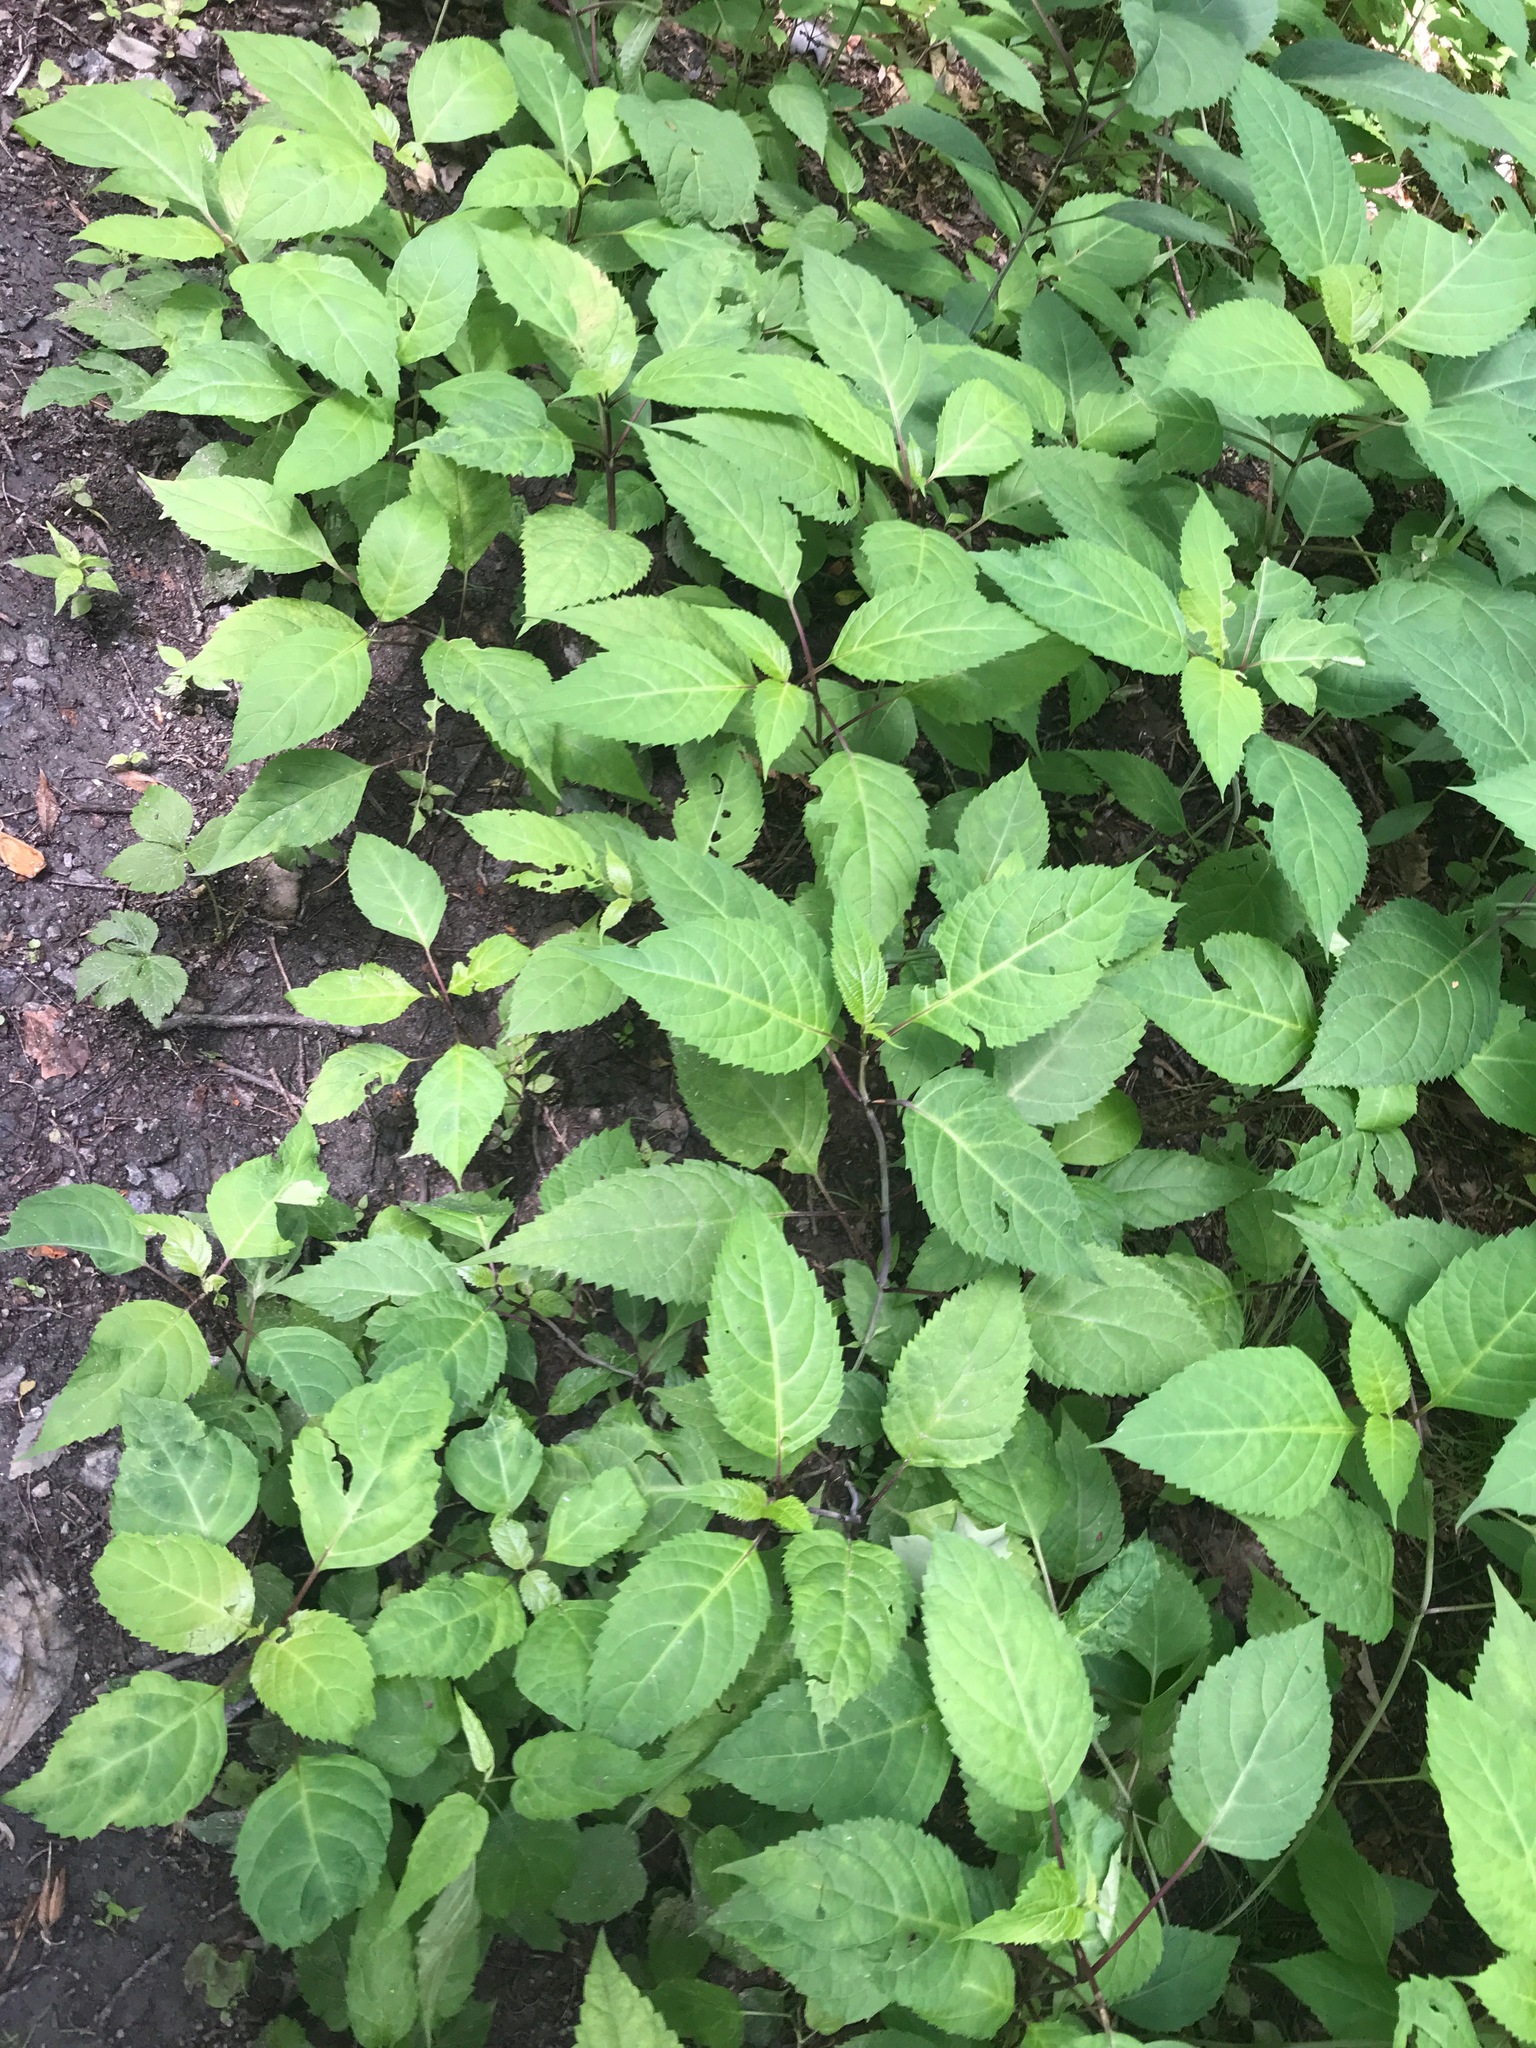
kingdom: Plantae
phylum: Tracheophyta
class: Magnoliopsida
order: Lamiales
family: Lamiaceae
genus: Collinsonia
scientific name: Collinsonia canadensis
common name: Northern horsebalm
